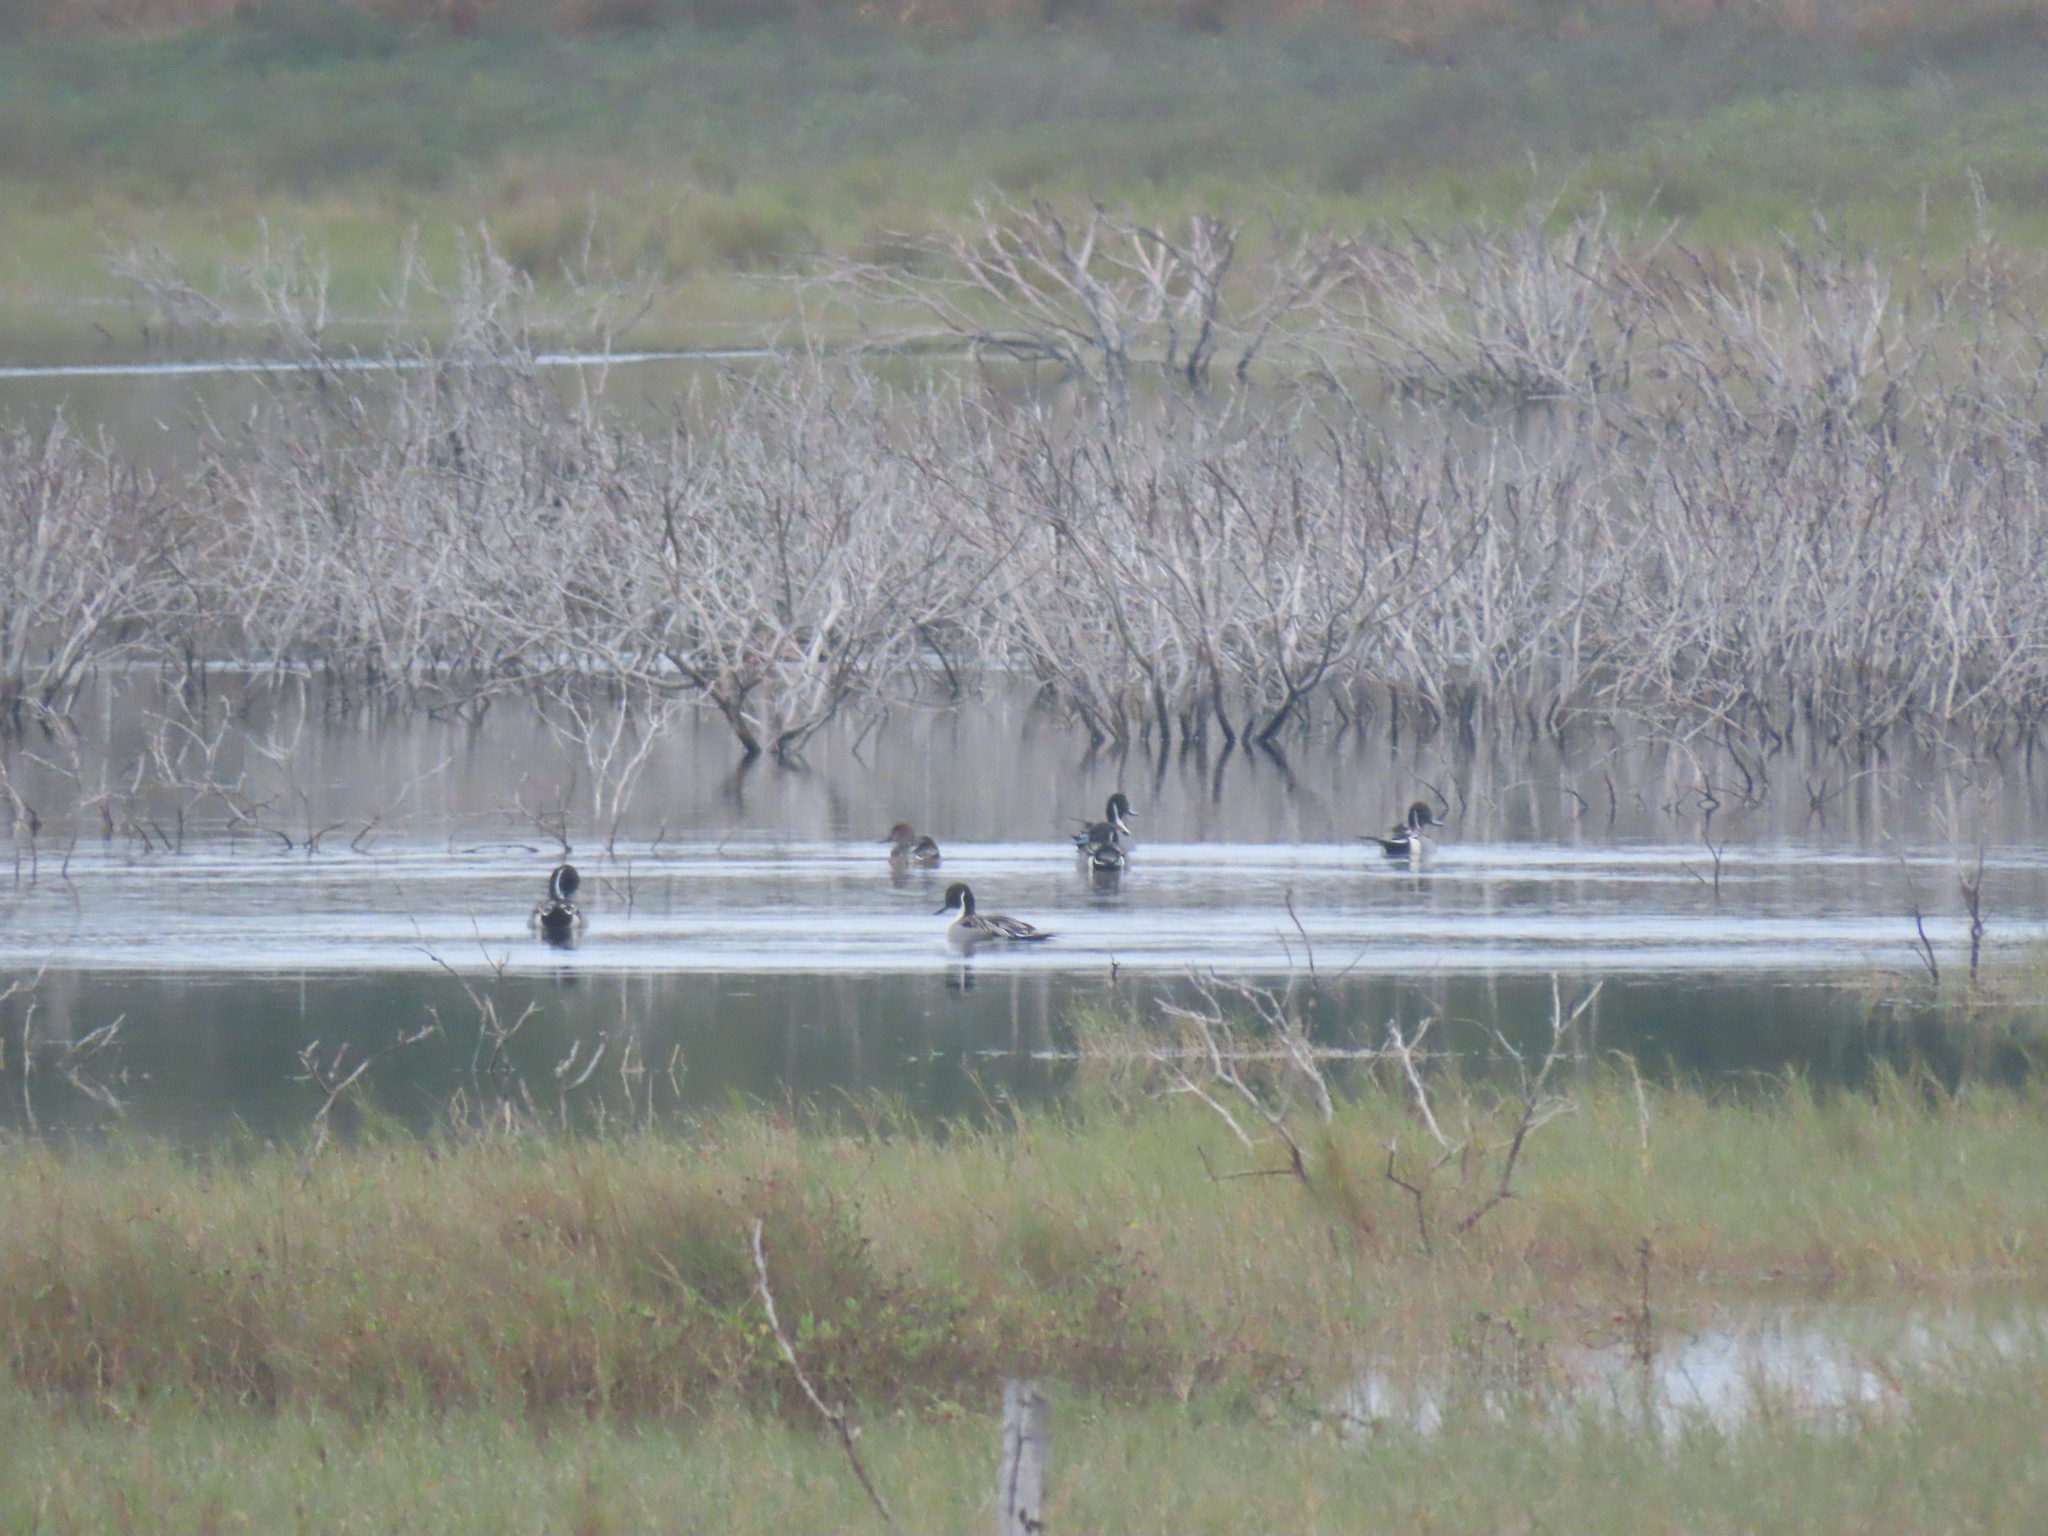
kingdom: Animalia
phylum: Chordata
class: Aves
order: Anseriformes
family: Anatidae
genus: Anas
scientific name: Anas acuta
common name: Northern pintail
